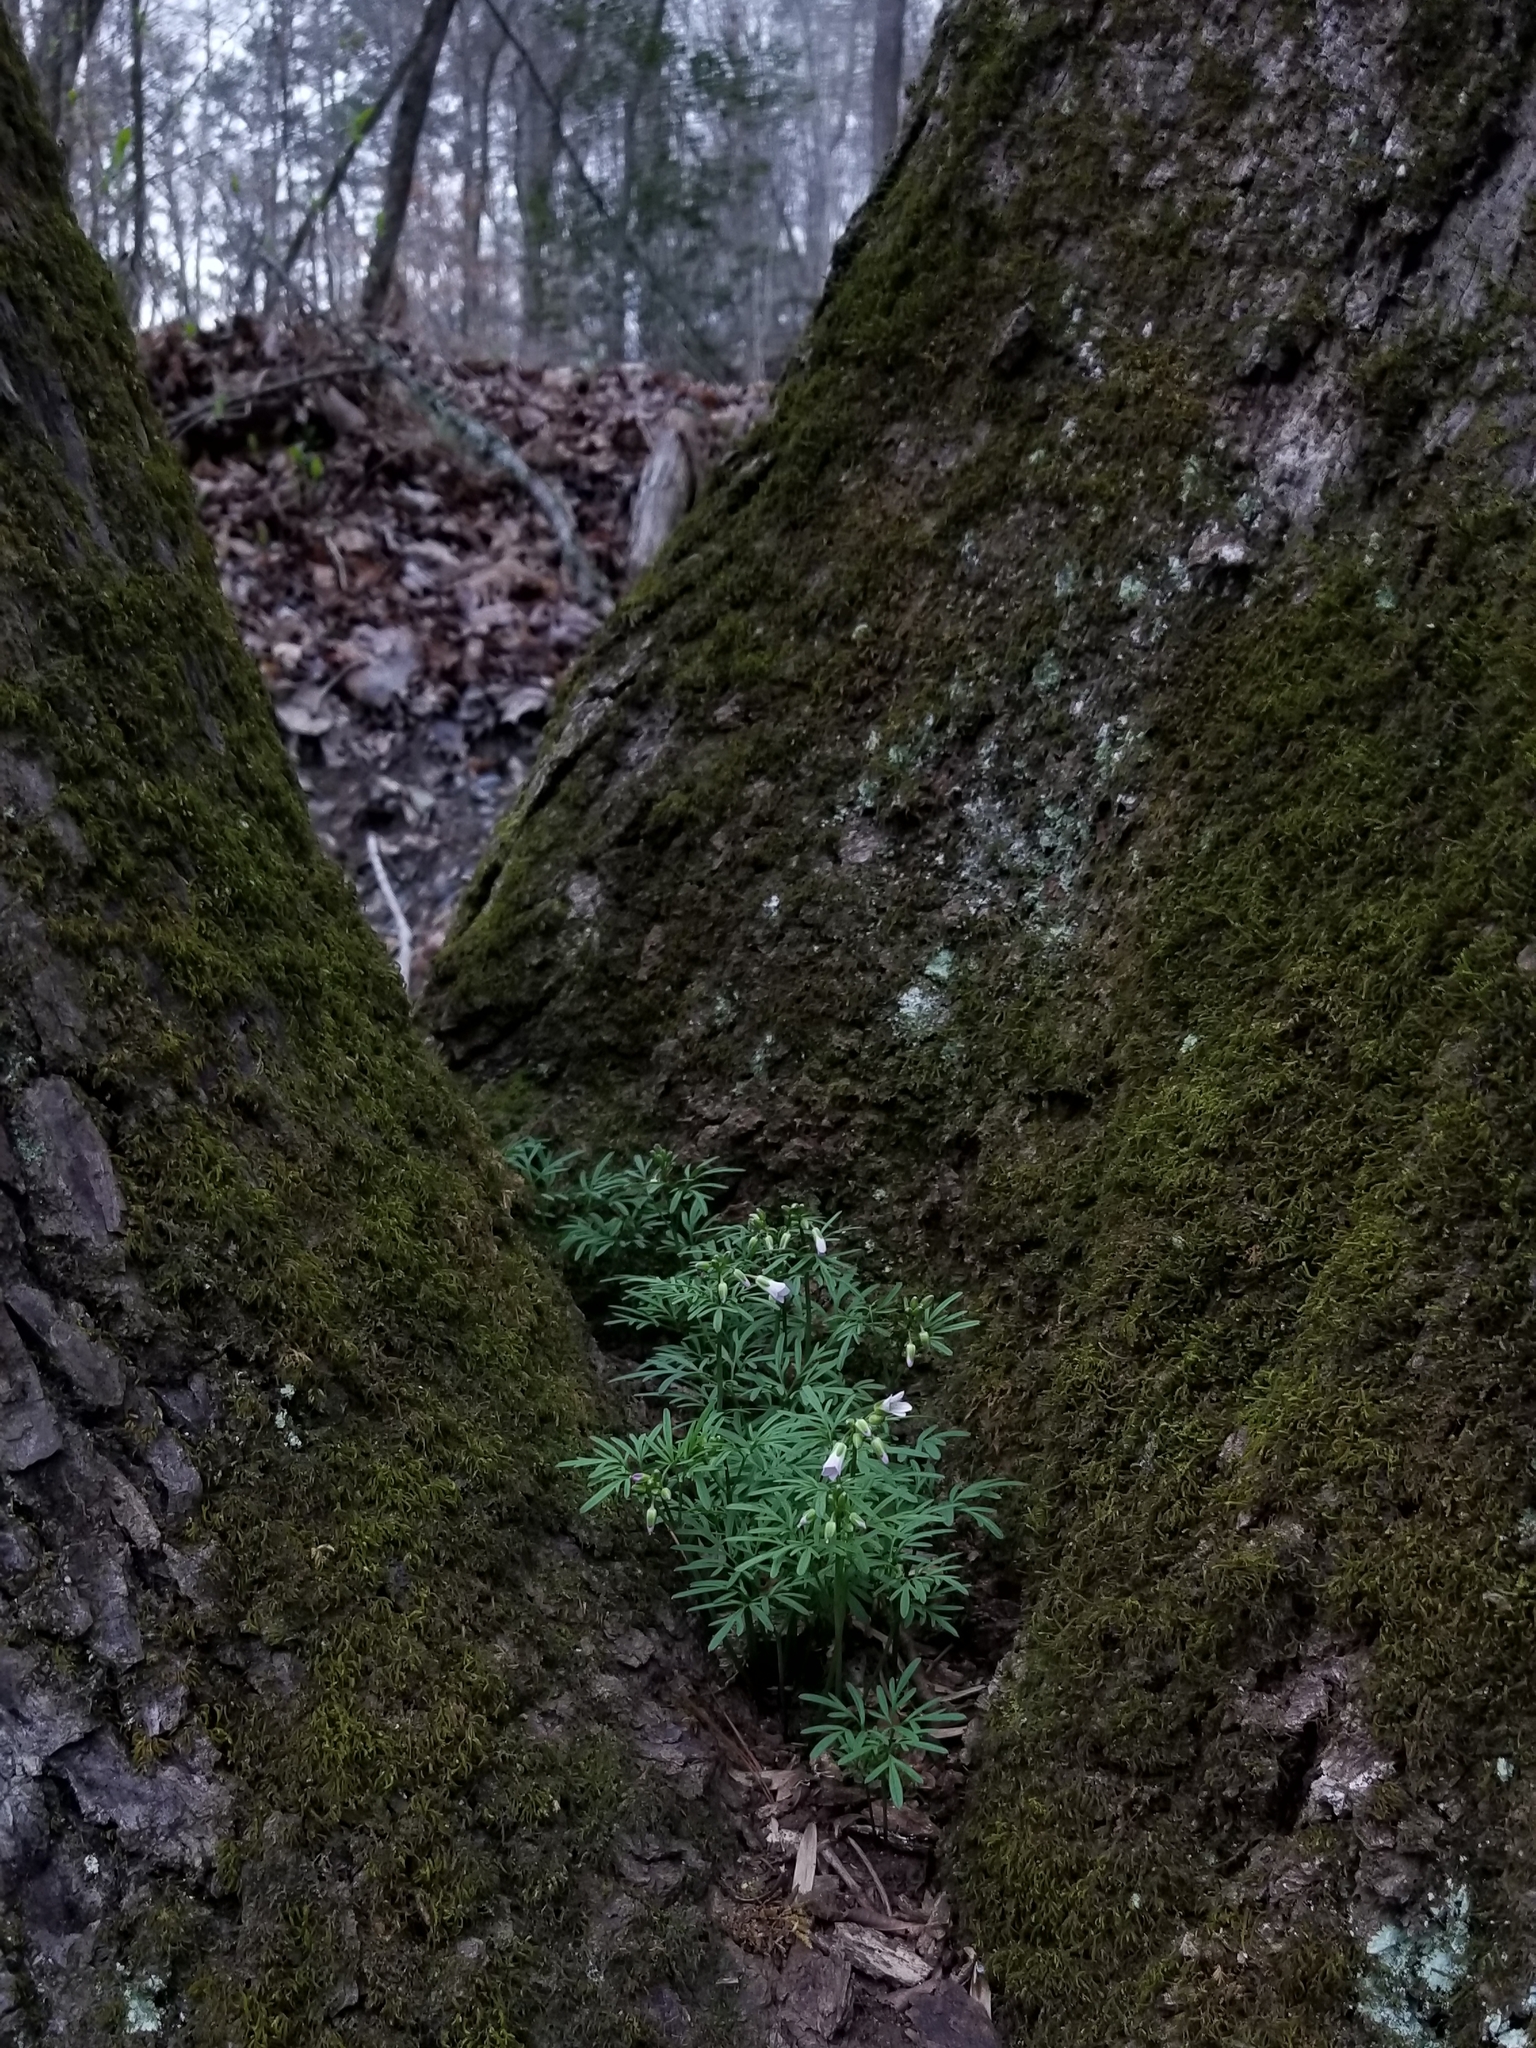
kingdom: Plantae
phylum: Tracheophyta
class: Magnoliopsida
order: Brassicales
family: Brassicaceae
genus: Cardamine
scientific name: Cardamine dissecta
